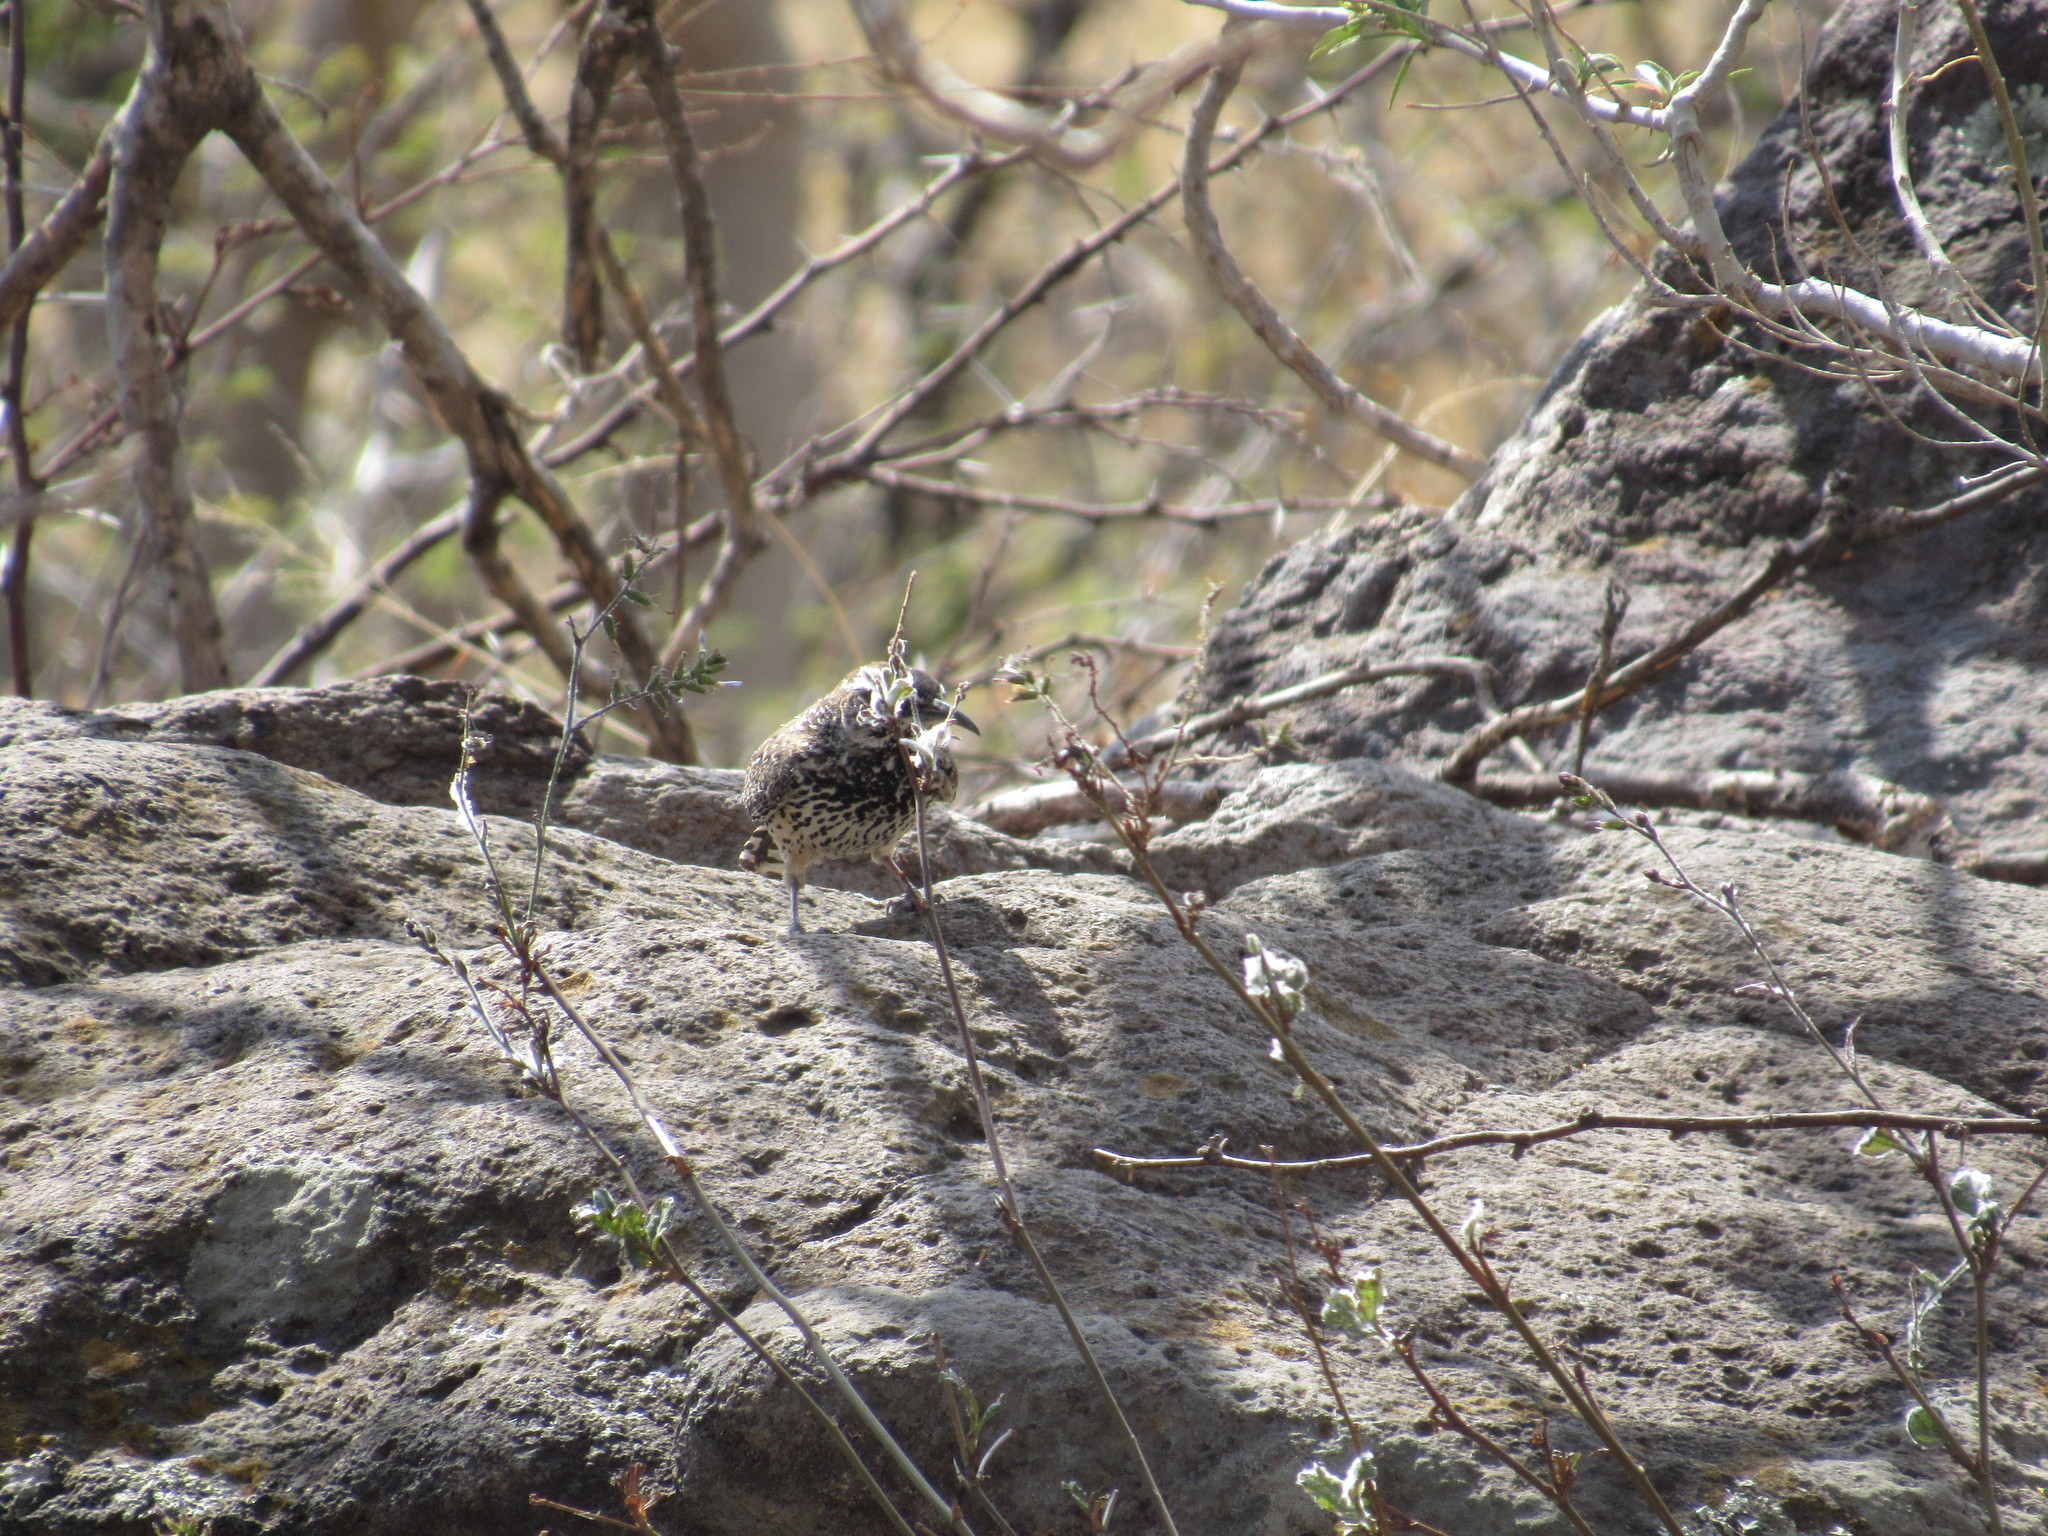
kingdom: Animalia
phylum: Chordata
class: Aves
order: Passeriformes
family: Troglodytidae
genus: Campylorhynchus
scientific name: Campylorhynchus brunneicapillus
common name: Cactus wren
